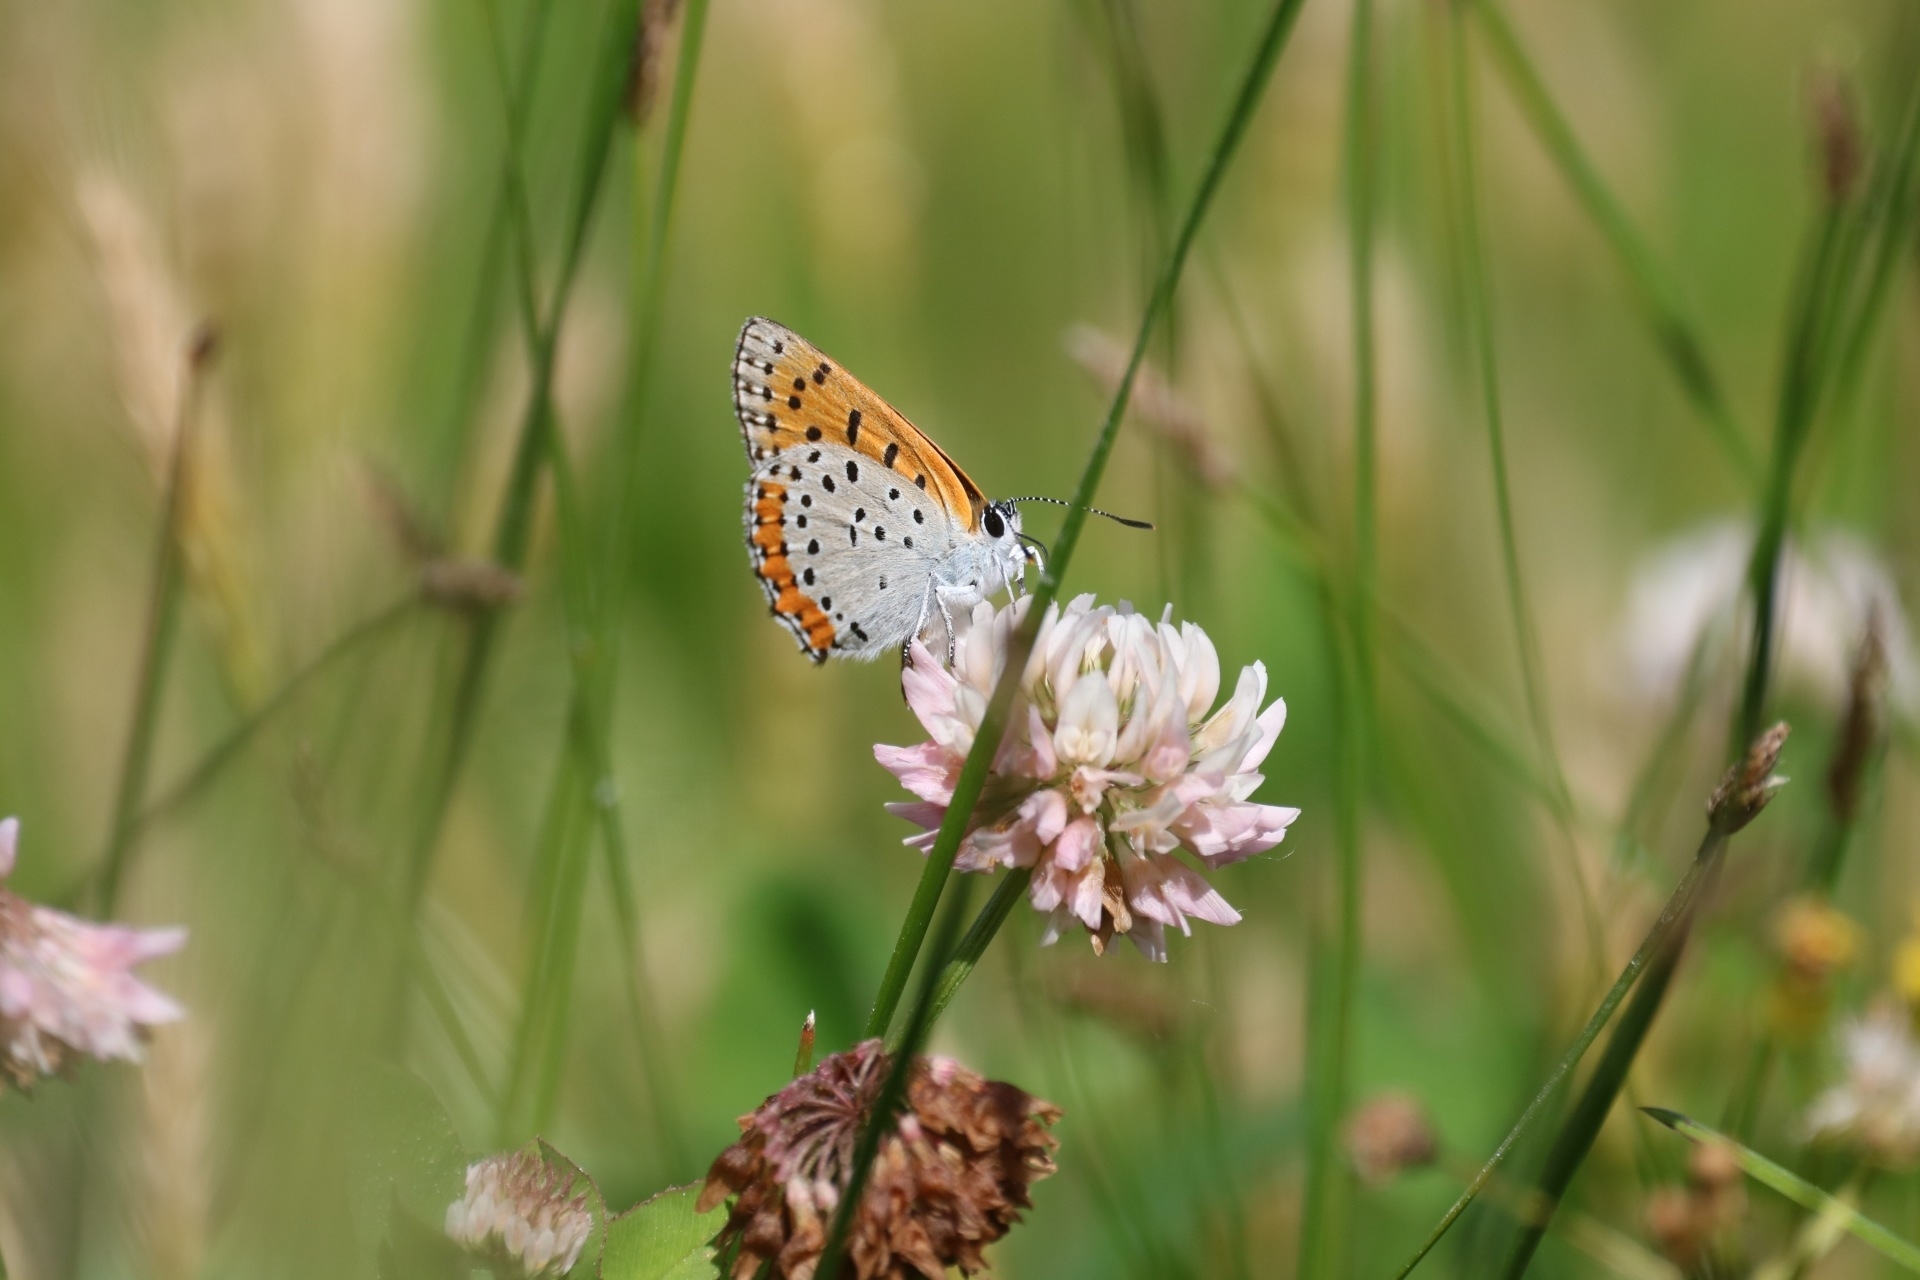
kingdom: Animalia
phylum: Arthropoda
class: Insecta
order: Lepidoptera
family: Lycaenidae
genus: Tharsalea
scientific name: Tharsalea hyllus
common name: Bronze copper
